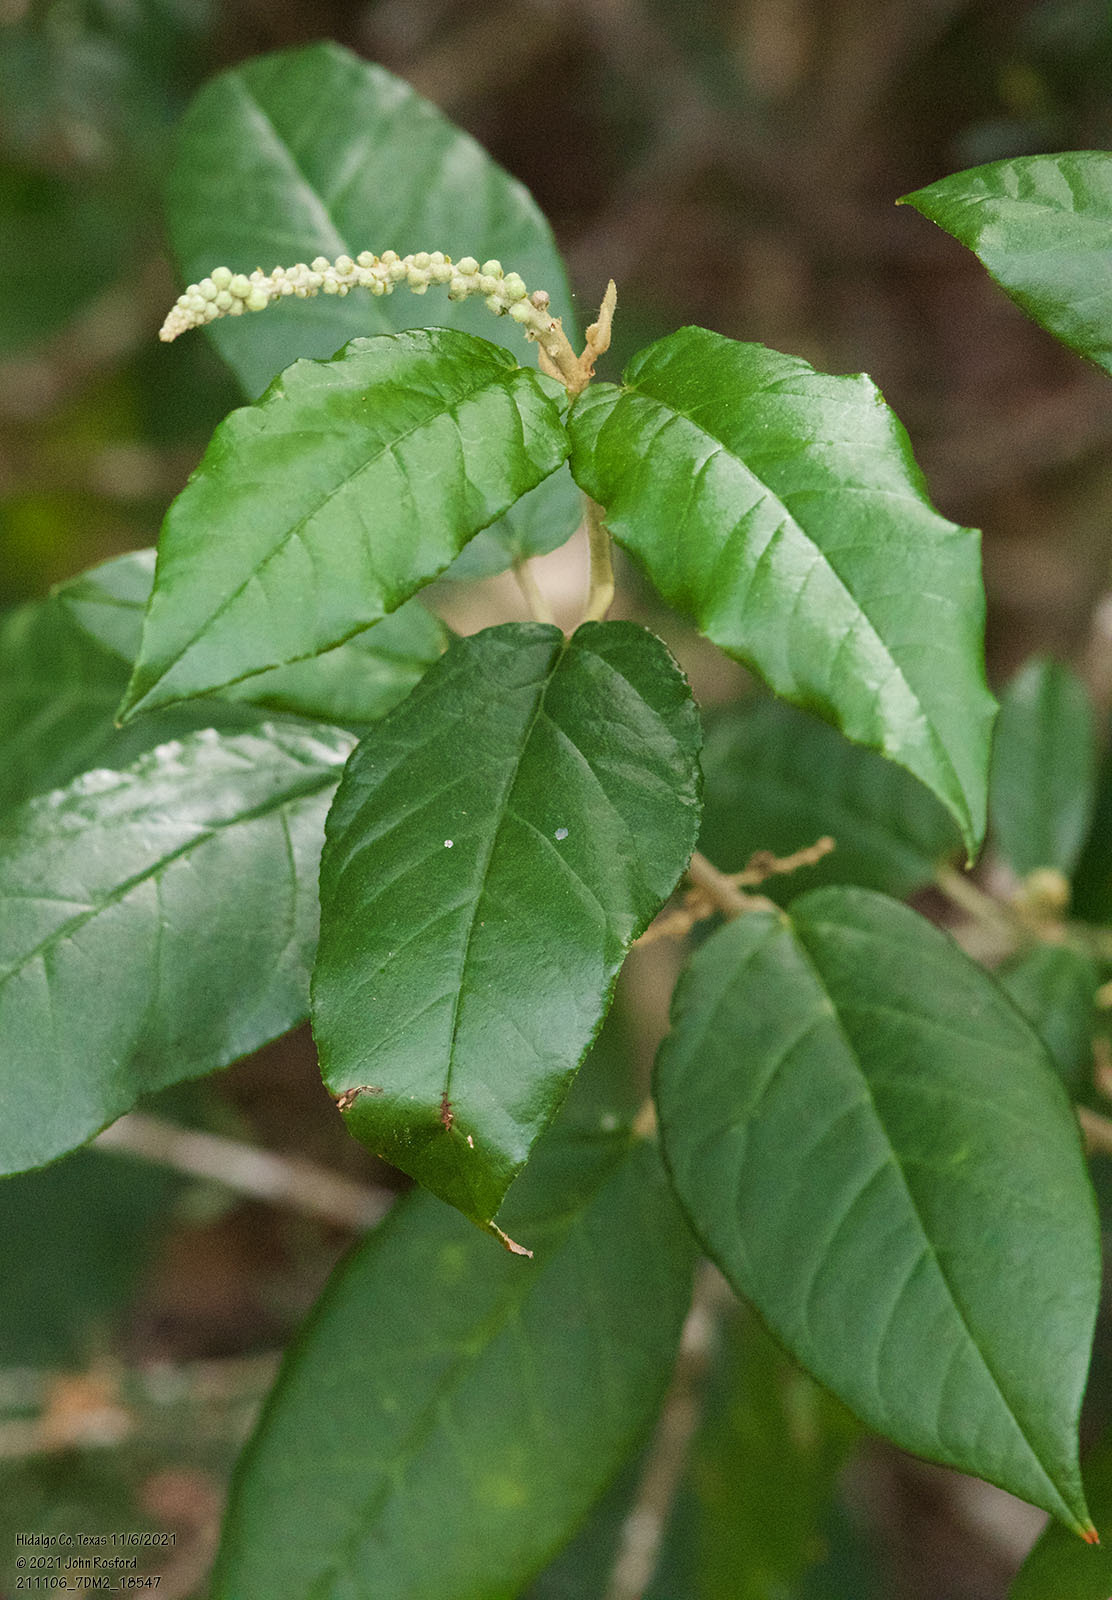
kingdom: Plantae
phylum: Tracheophyta
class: Magnoliopsida
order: Malpighiales
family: Euphorbiaceae
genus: Croton
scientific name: Croton cortesianus
